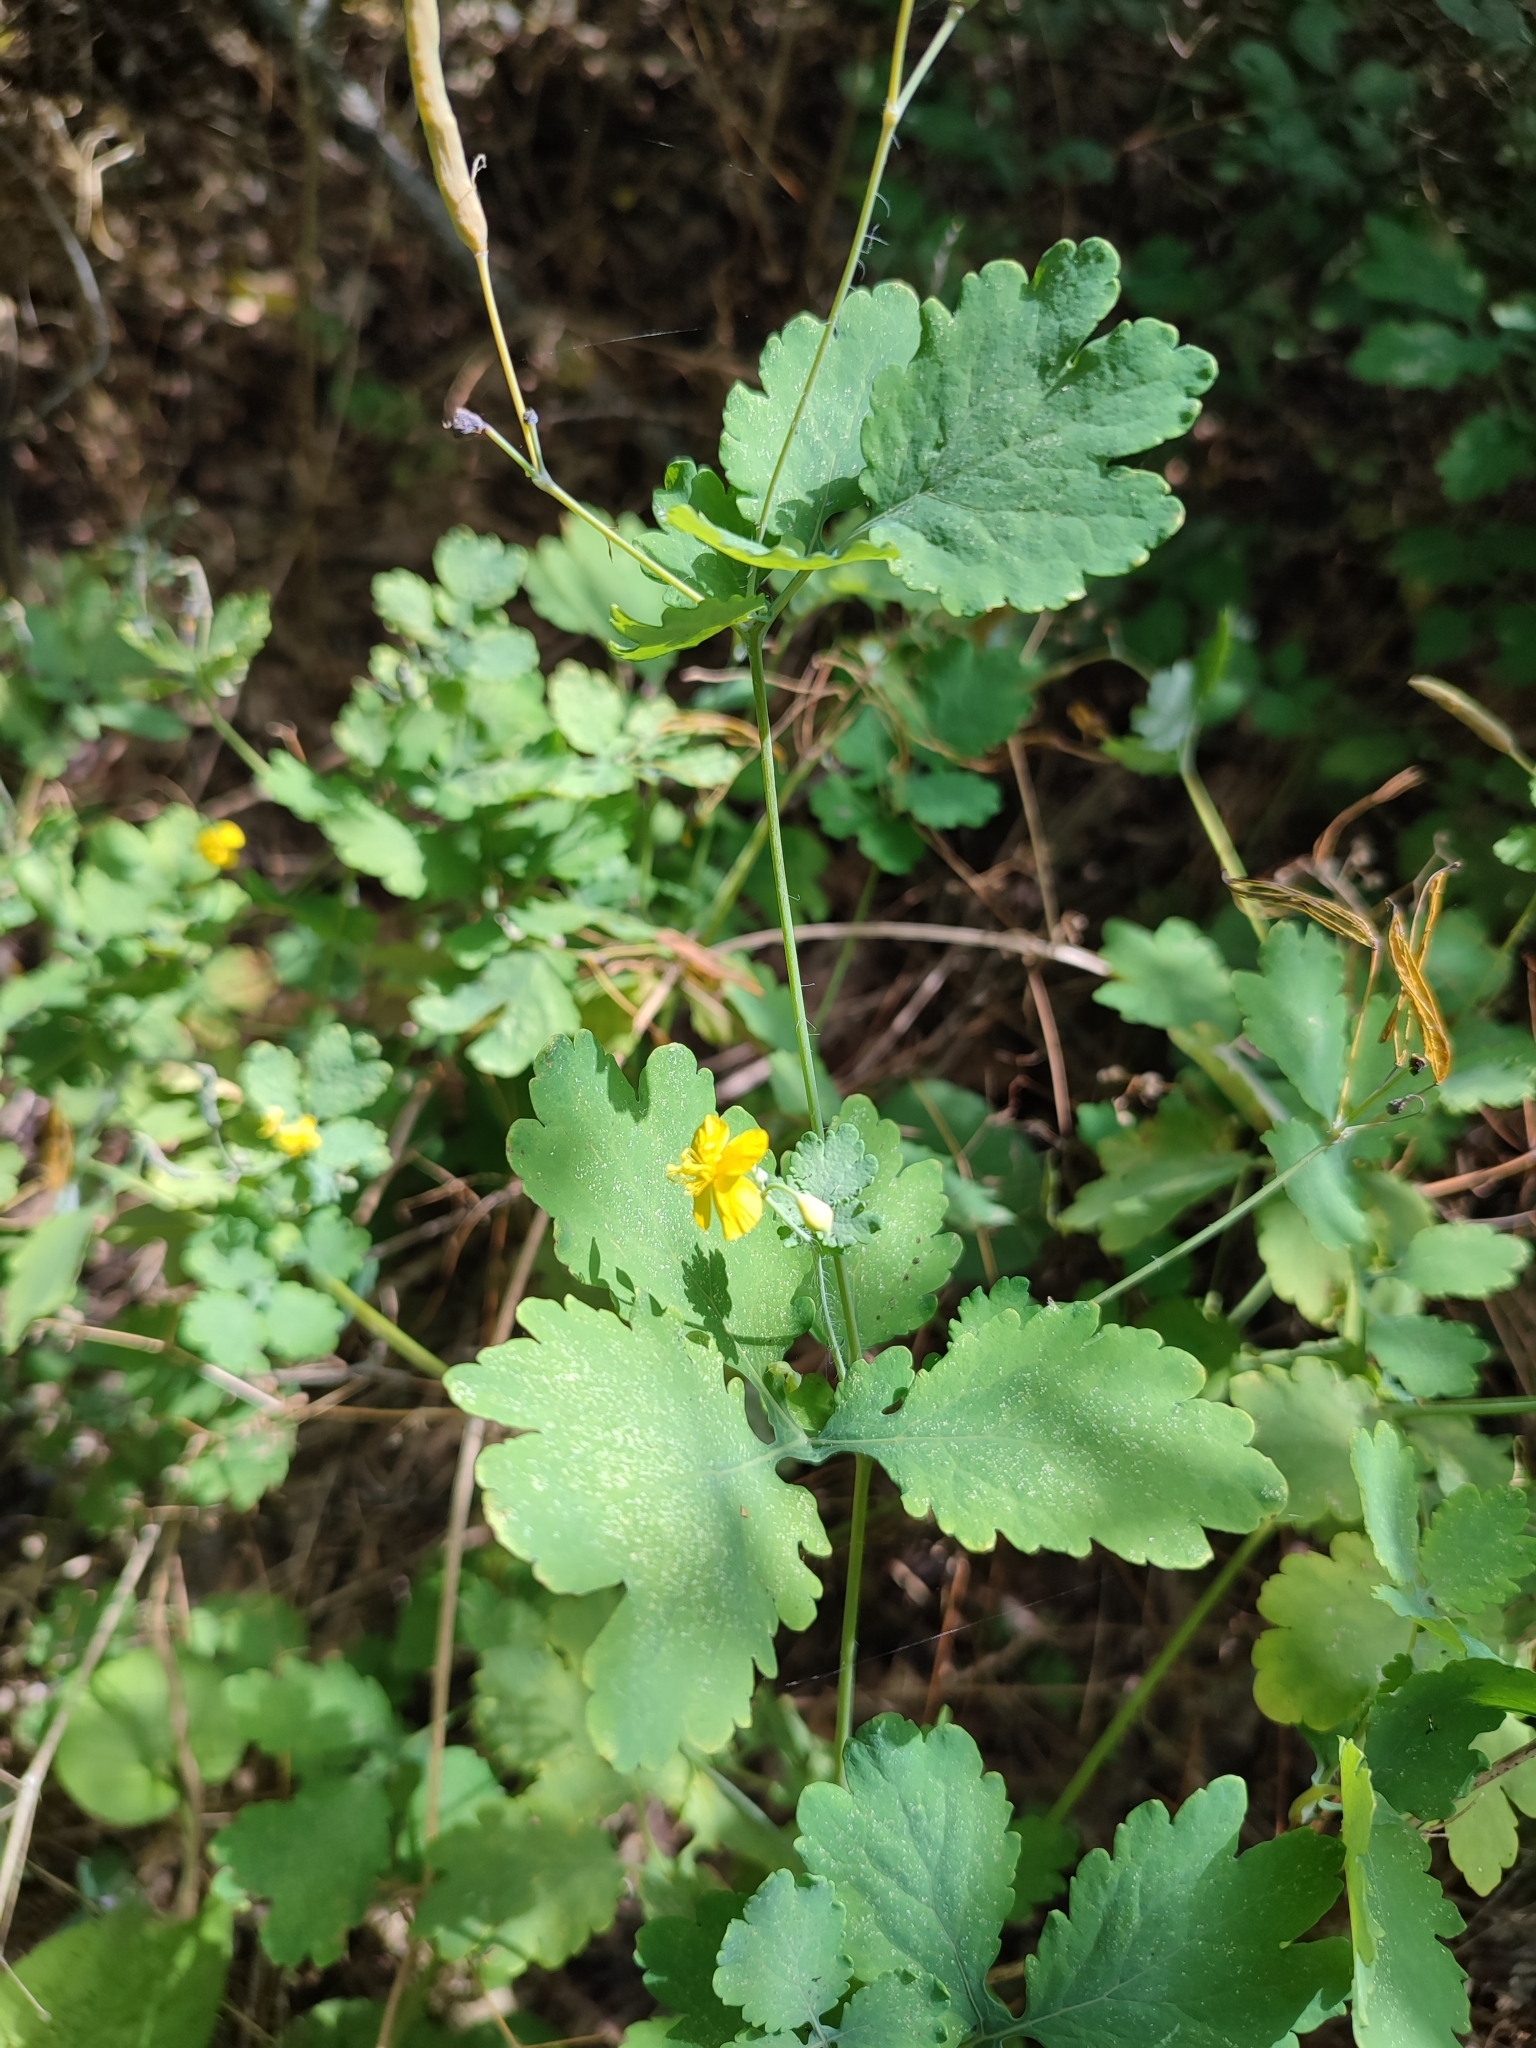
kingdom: Plantae
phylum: Tracheophyta
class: Magnoliopsida
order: Ranunculales
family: Papaveraceae
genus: Chelidonium
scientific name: Chelidonium majus
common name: Greater celandine
